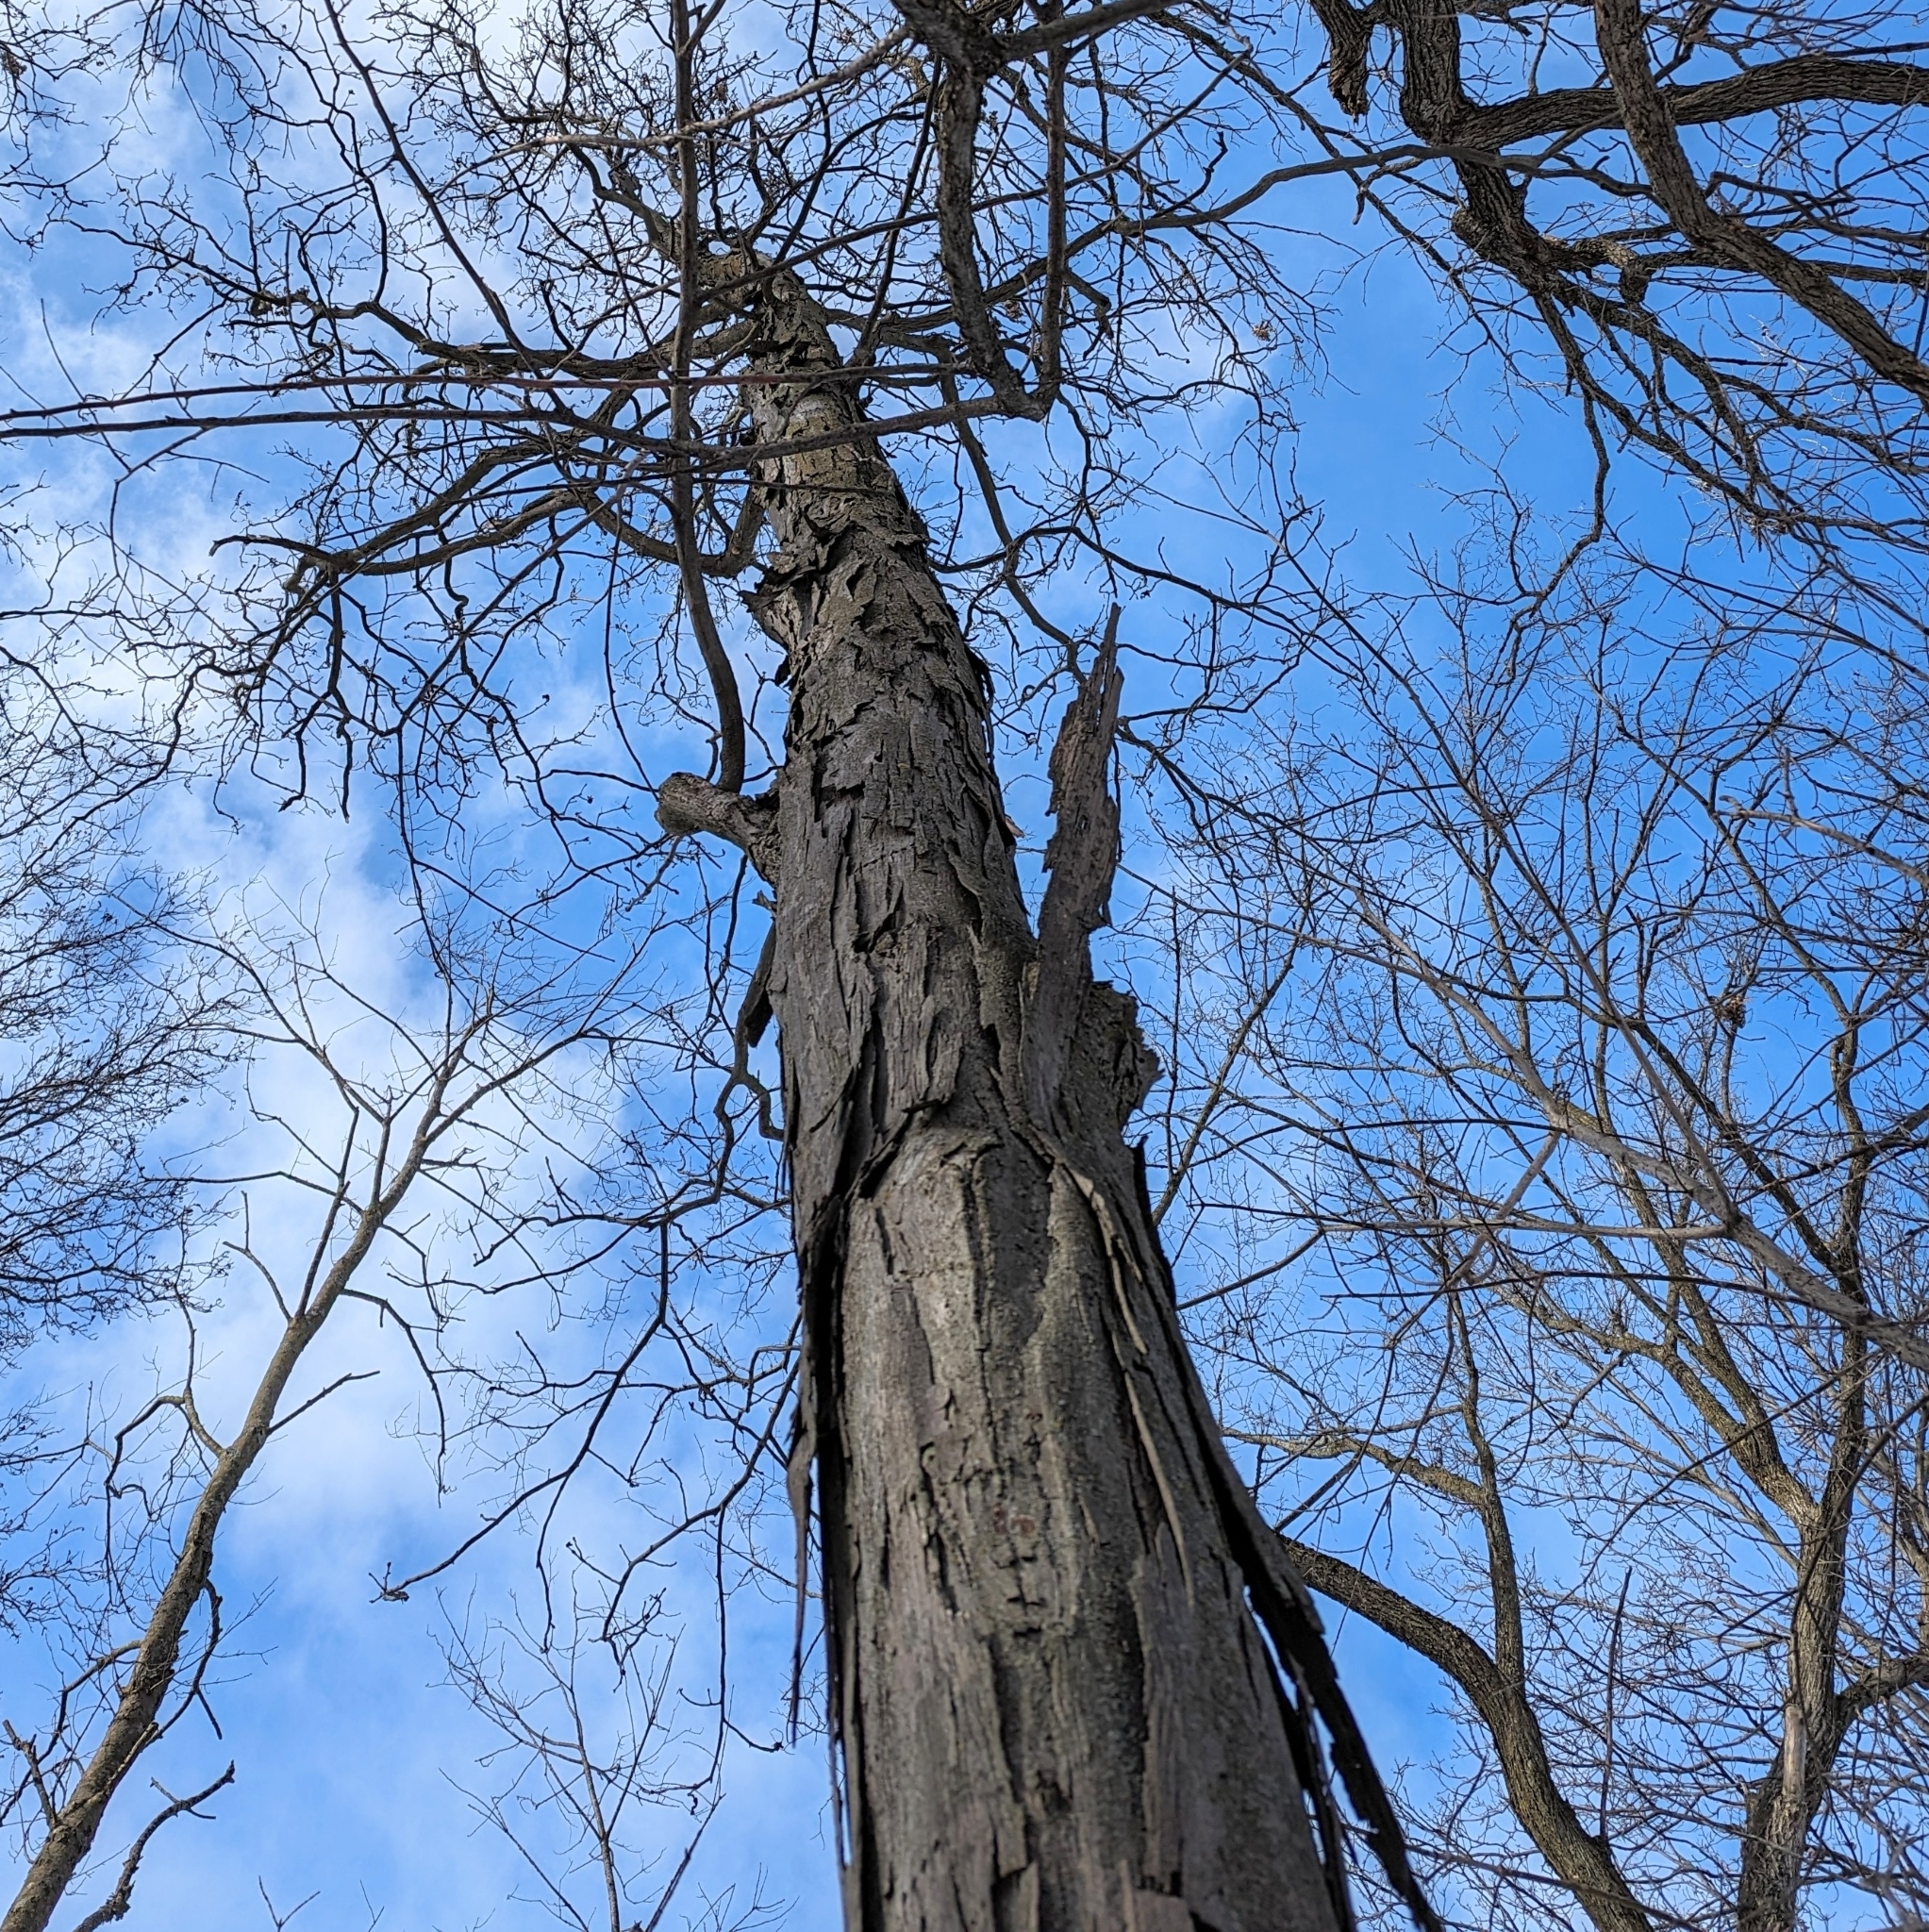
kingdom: Plantae
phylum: Tracheophyta
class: Magnoliopsida
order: Fagales
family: Juglandaceae
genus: Carya
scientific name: Carya ovata
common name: Shagbark hickory
